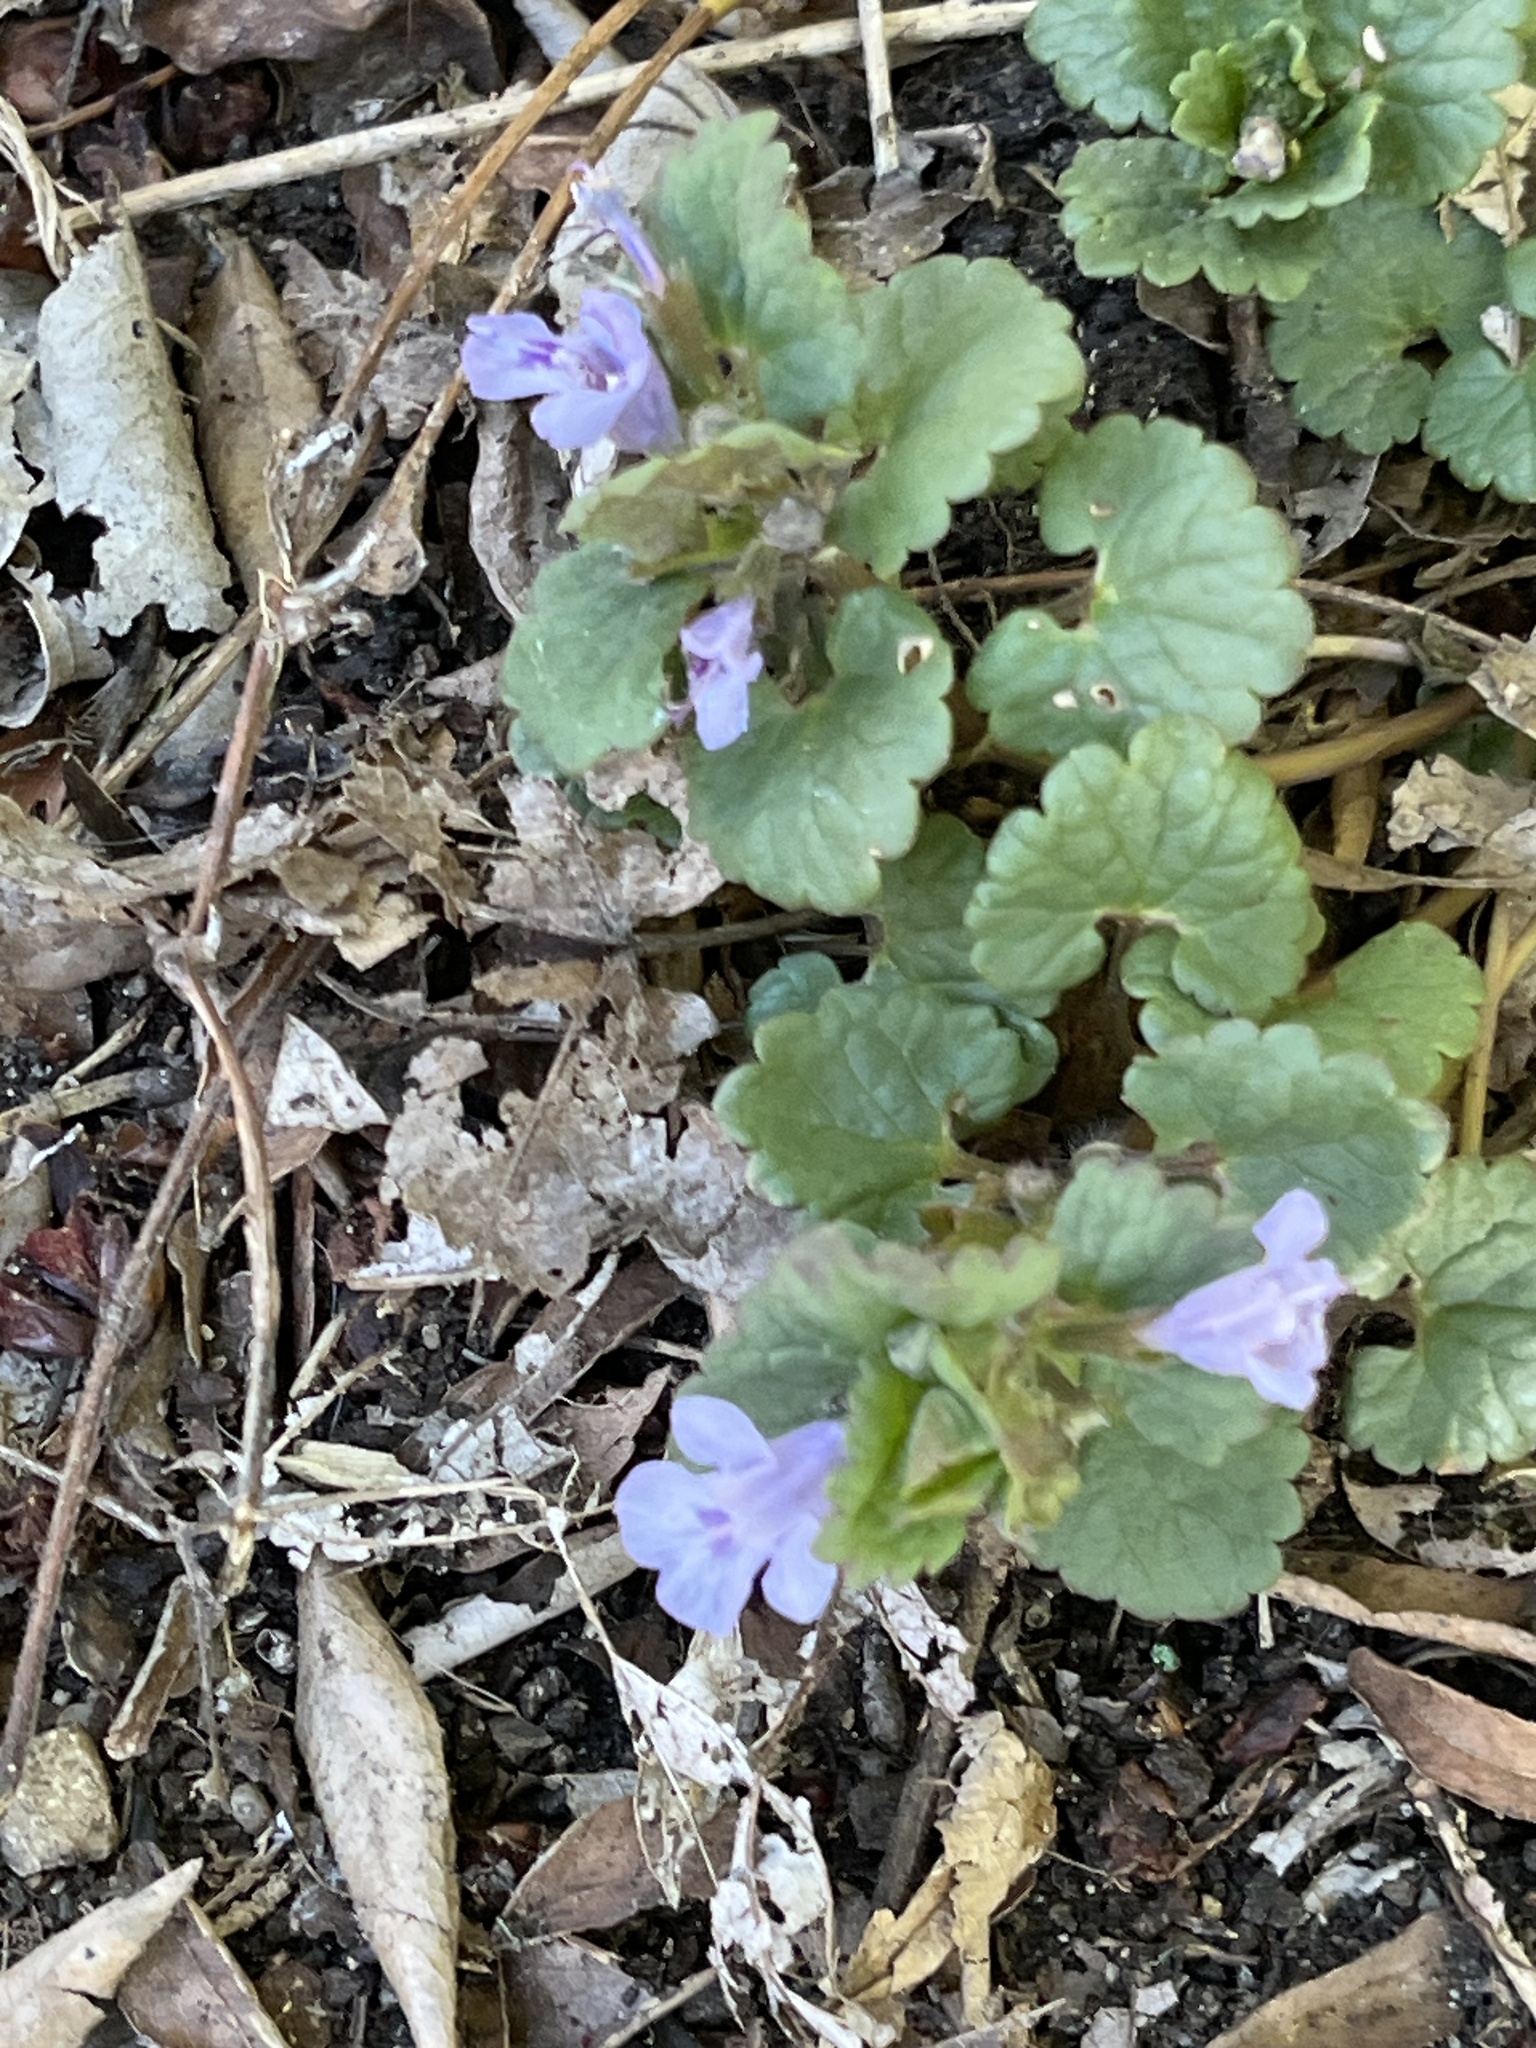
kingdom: Plantae
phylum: Tracheophyta
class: Magnoliopsida
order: Lamiales
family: Lamiaceae
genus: Glechoma
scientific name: Glechoma hederacea
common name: Ground ivy
